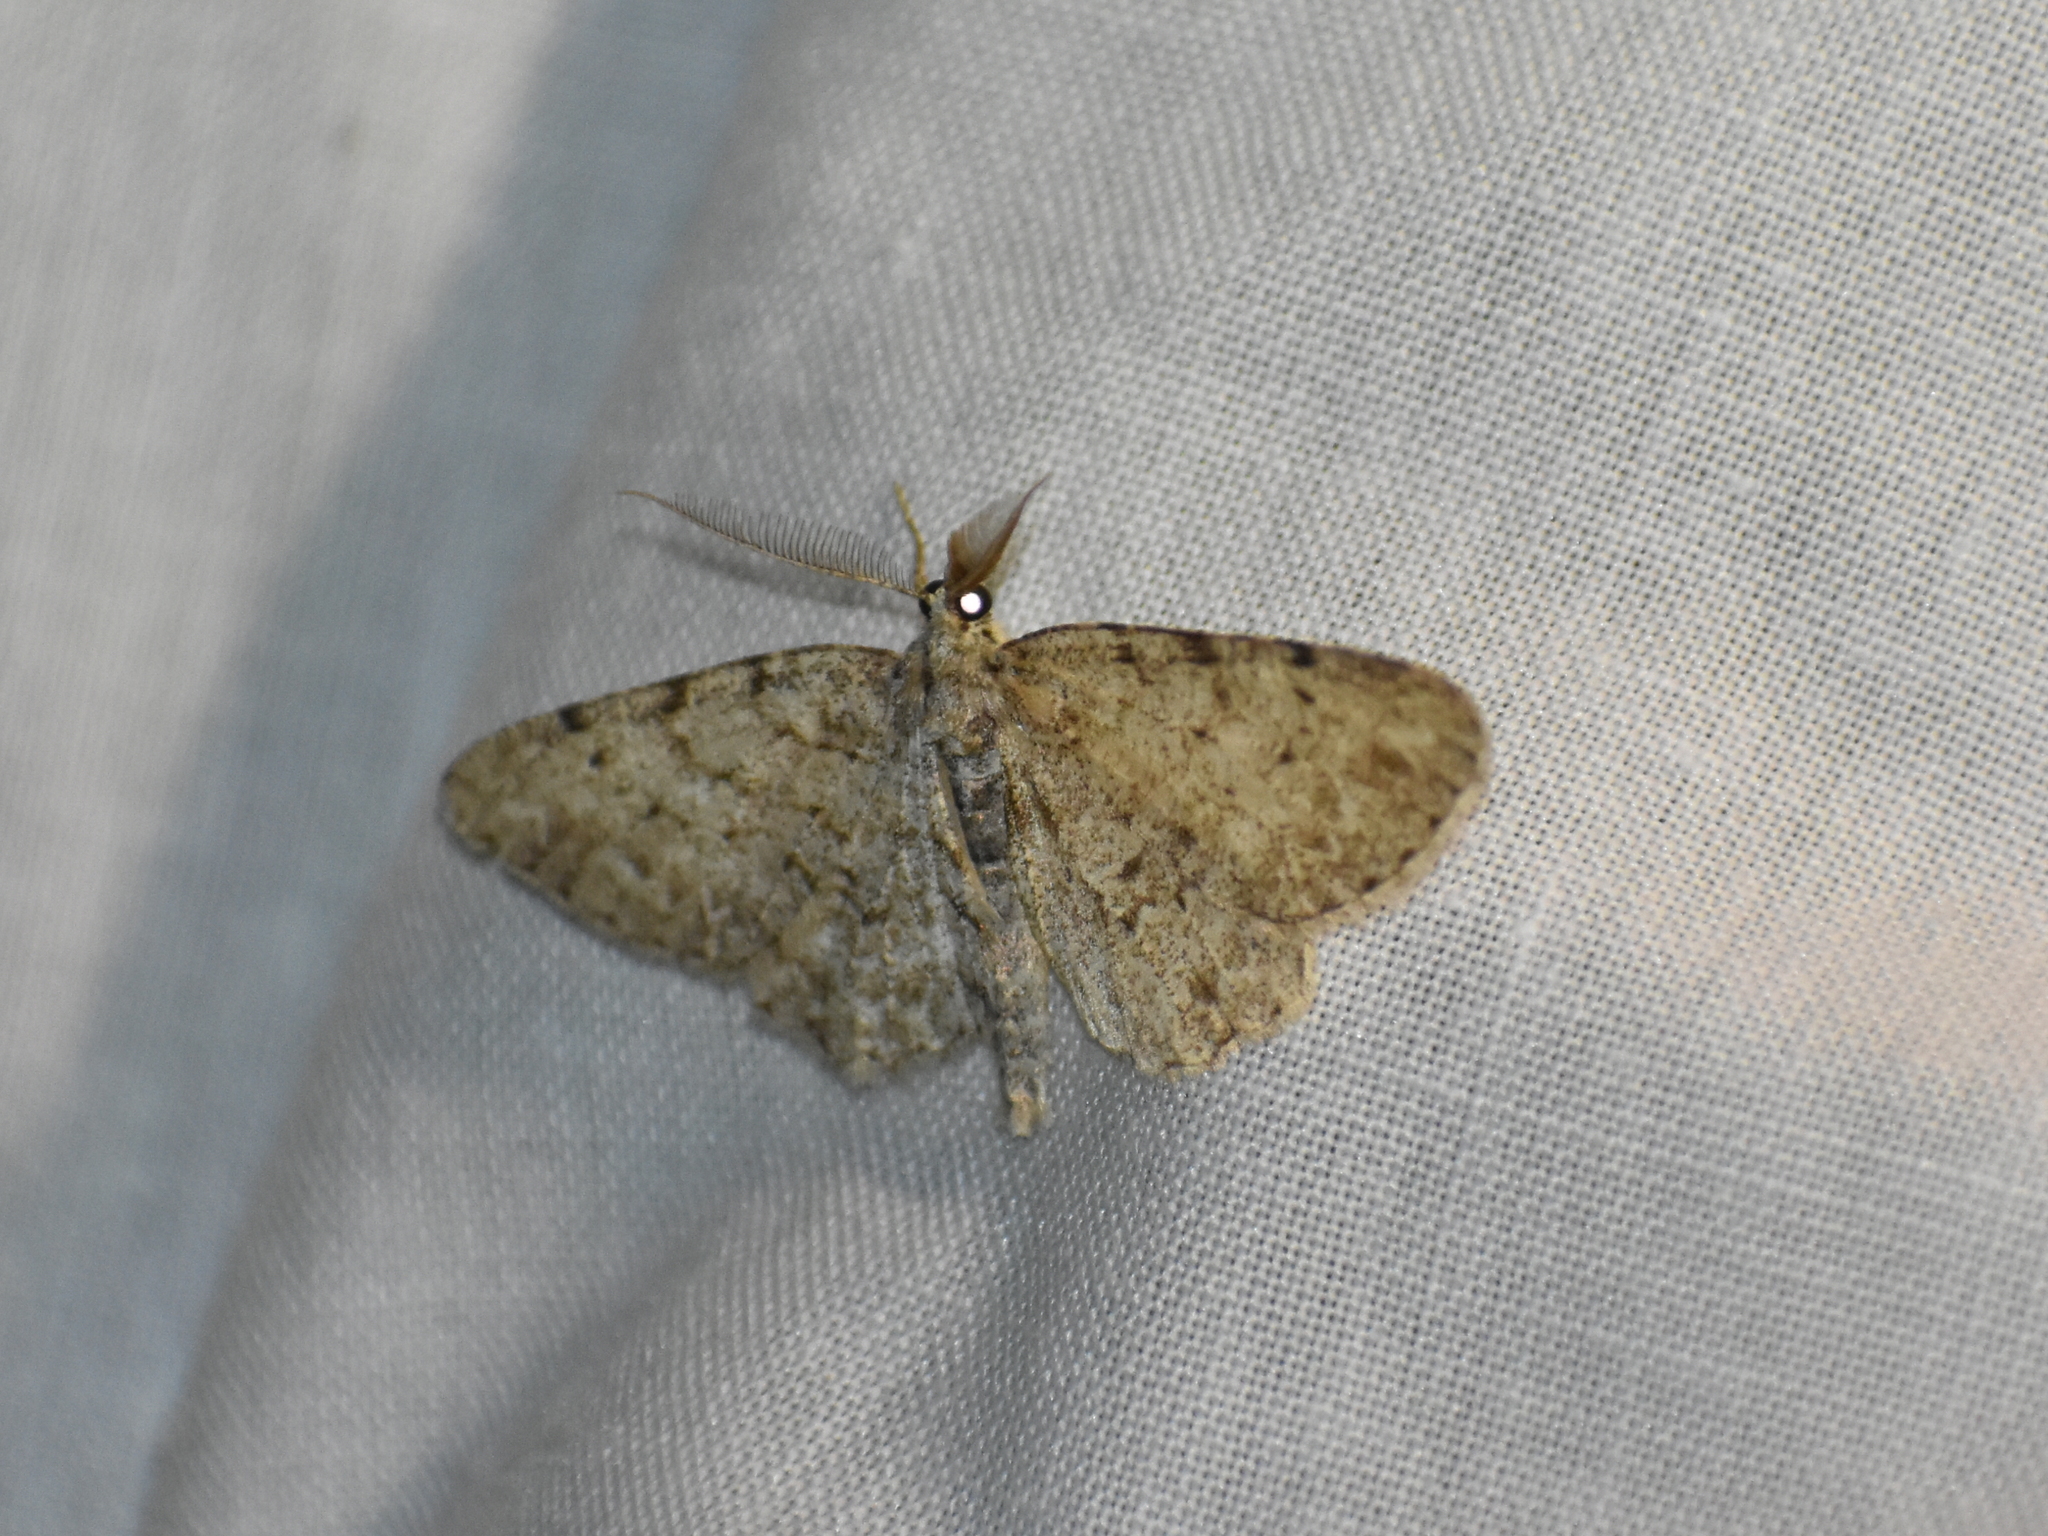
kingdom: Animalia
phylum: Arthropoda
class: Insecta
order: Lepidoptera
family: Geometridae
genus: Protoboarmia
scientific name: Protoboarmia porcelaria
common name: Porcelain gray
